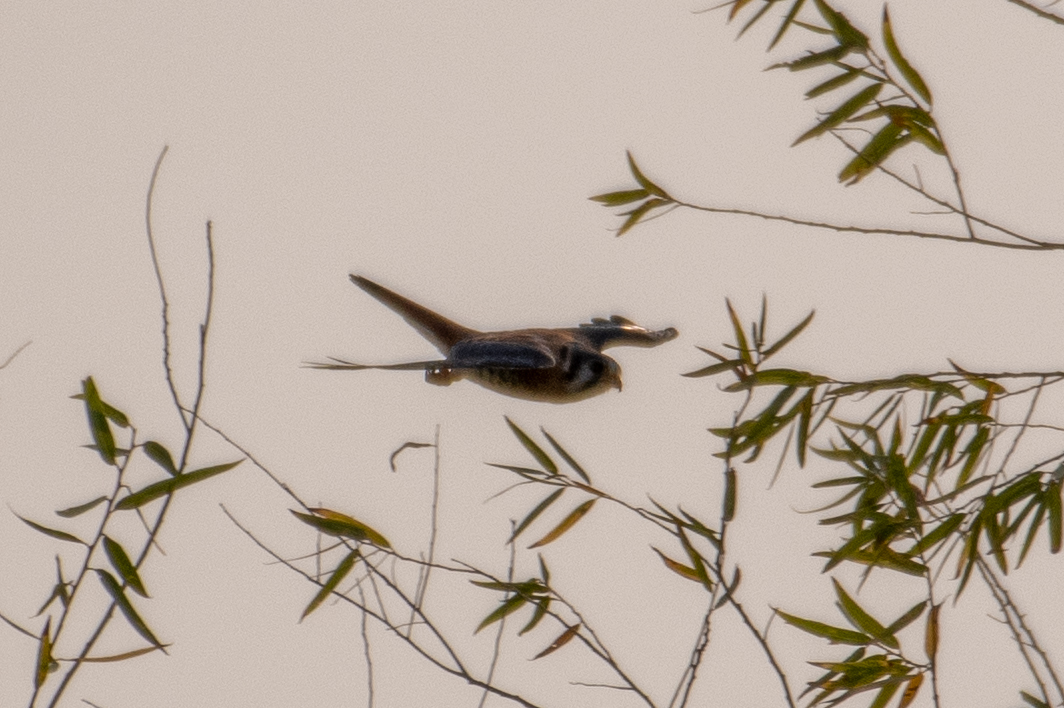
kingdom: Animalia
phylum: Chordata
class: Aves
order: Falconiformes
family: Falconidae
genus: Falco
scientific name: Falco sparverius
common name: American kestrel
